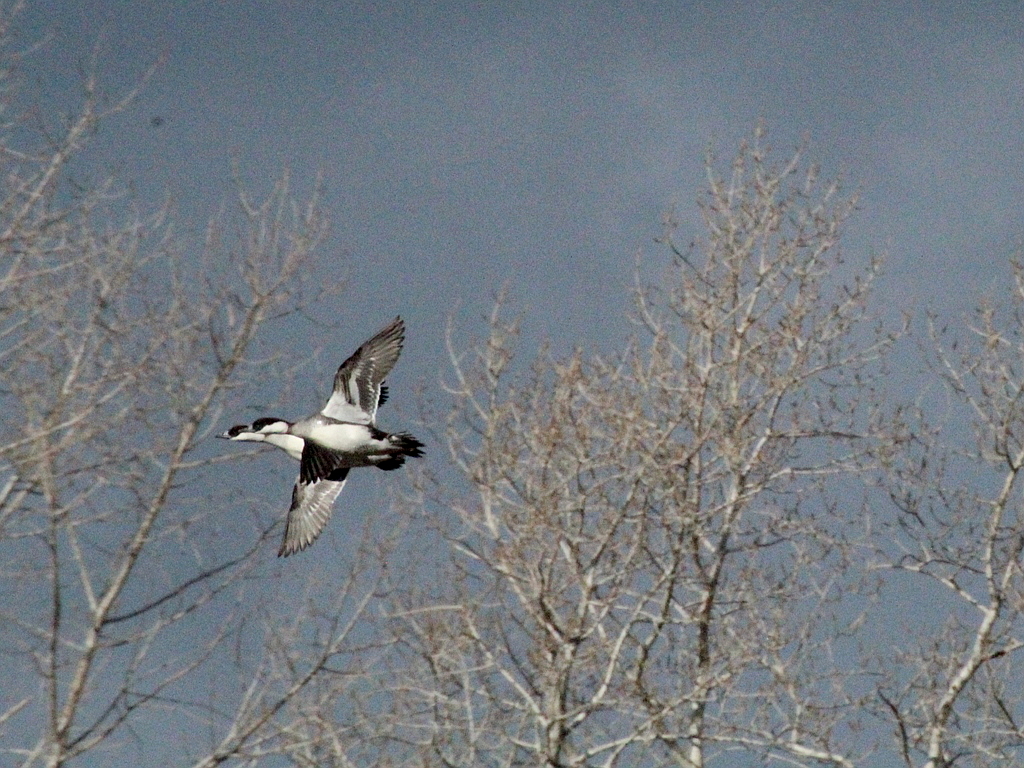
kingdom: Animalia
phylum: Chordata
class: Aves
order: Anseriformes
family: Anatidae
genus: Mergellus
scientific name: Mergellus albellus
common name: Smew
